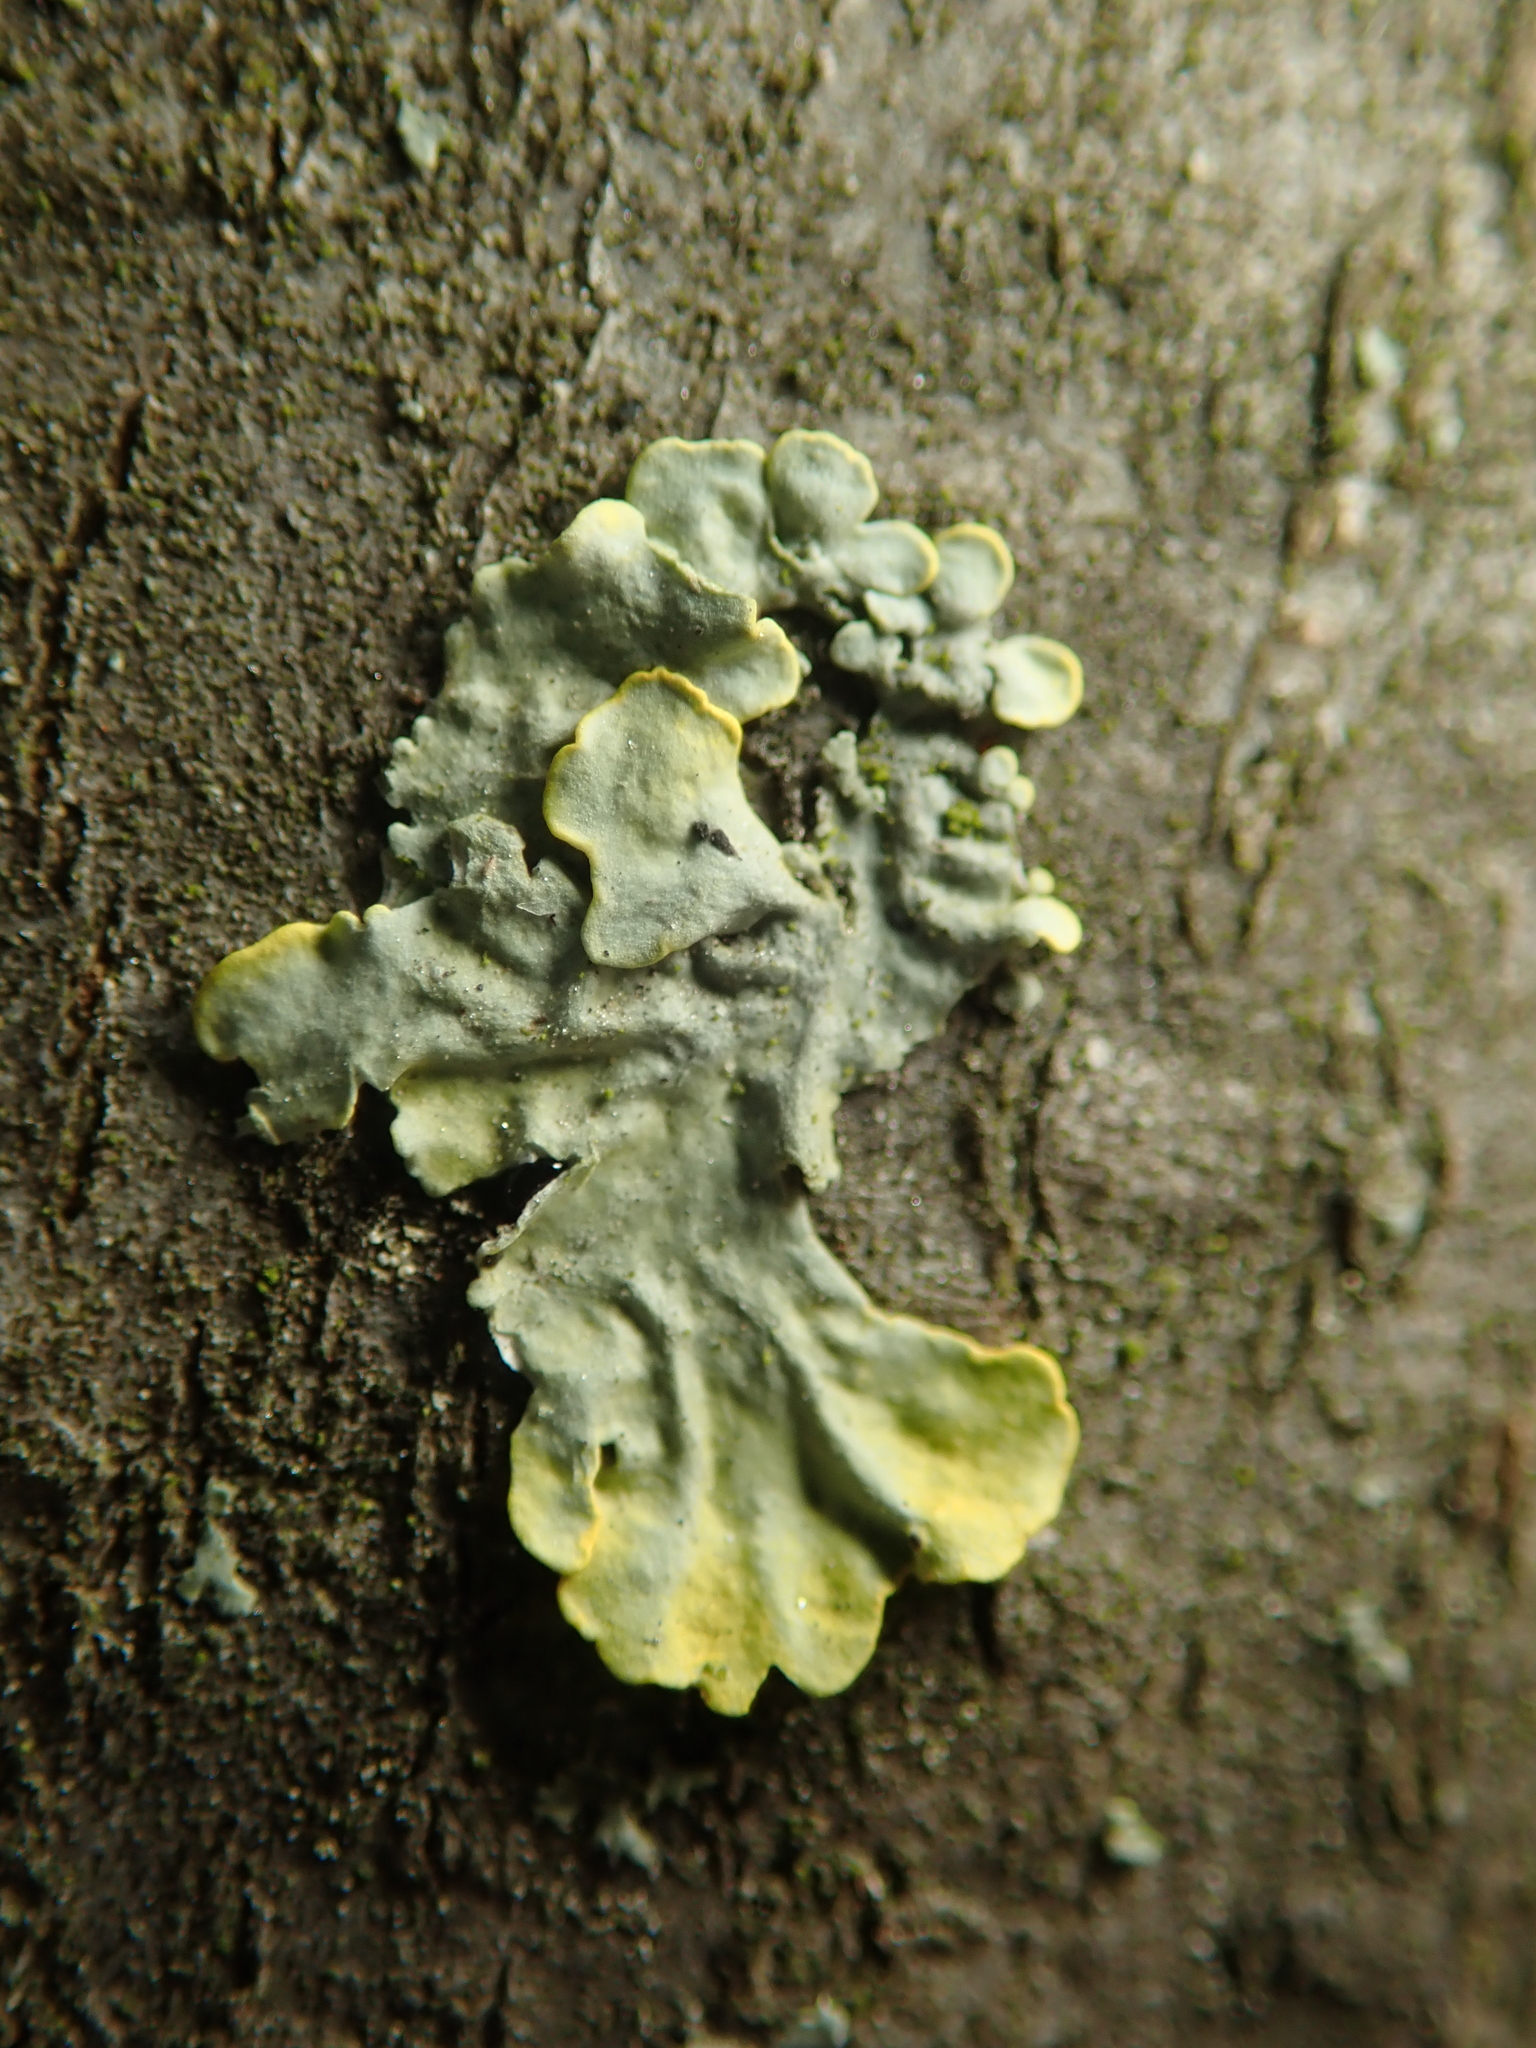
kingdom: Fungi
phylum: Ascomycota
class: Lecanoromycetes
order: Teloschistales
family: Teloschistaceae
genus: Xanthoria
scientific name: Xanthoria parietina
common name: Common orange lichen
